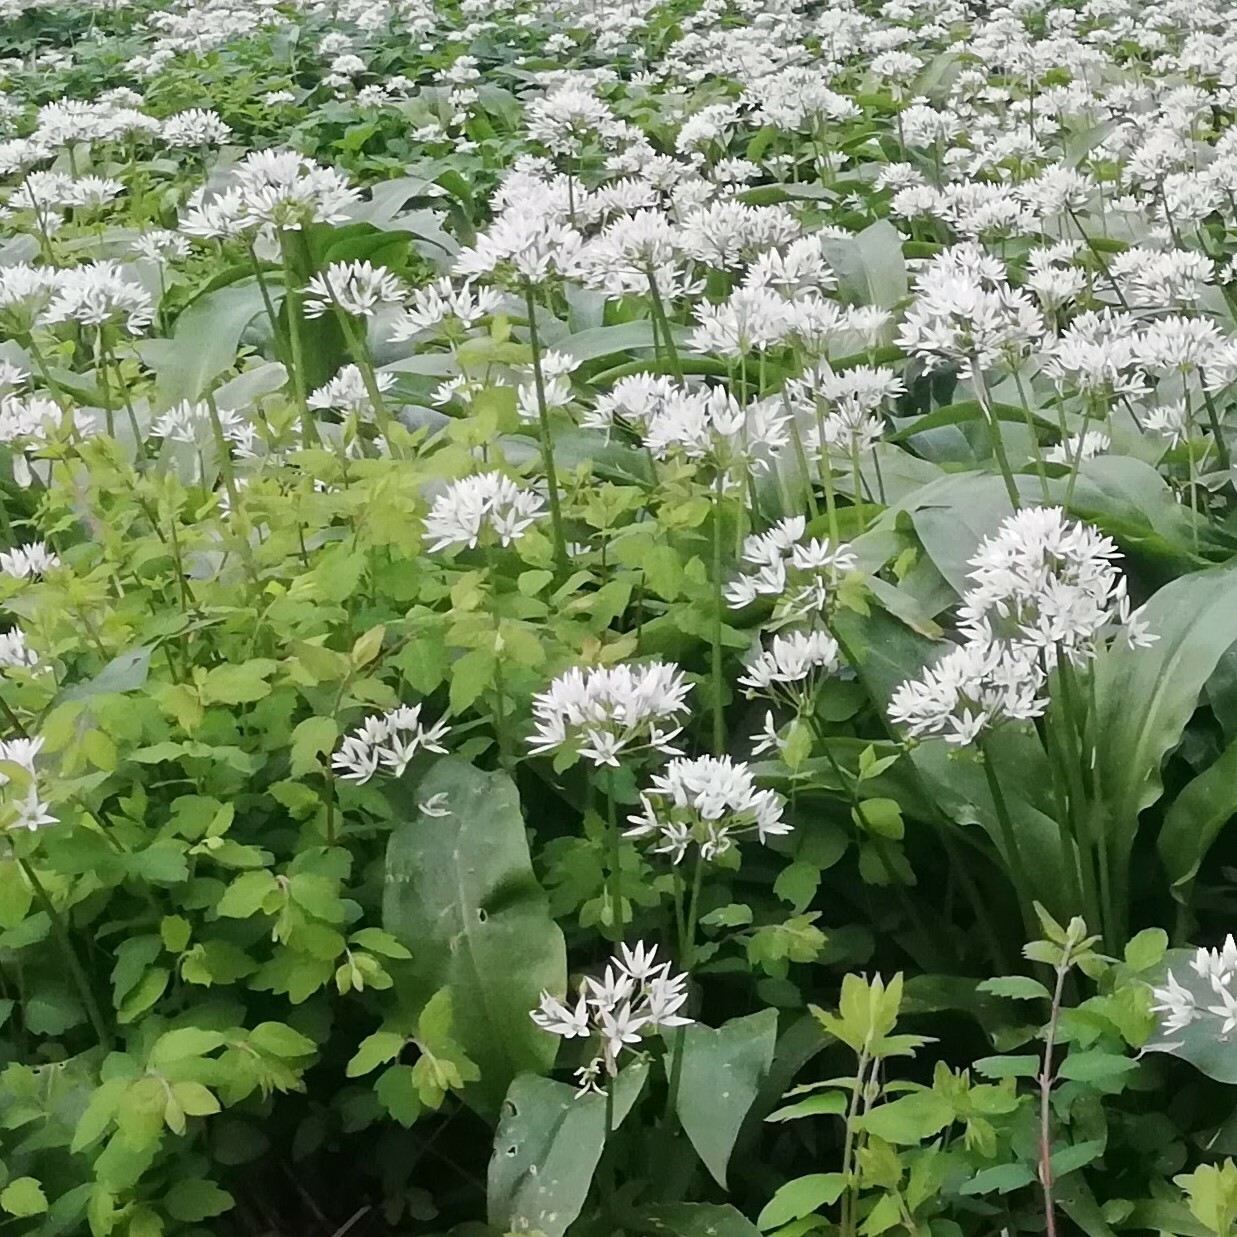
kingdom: Plantae
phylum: Tracheophyta
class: Liliopsida
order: Asparagales
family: Amaryllidaceae
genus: Allium
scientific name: Allium ursinum
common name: Ramsons
